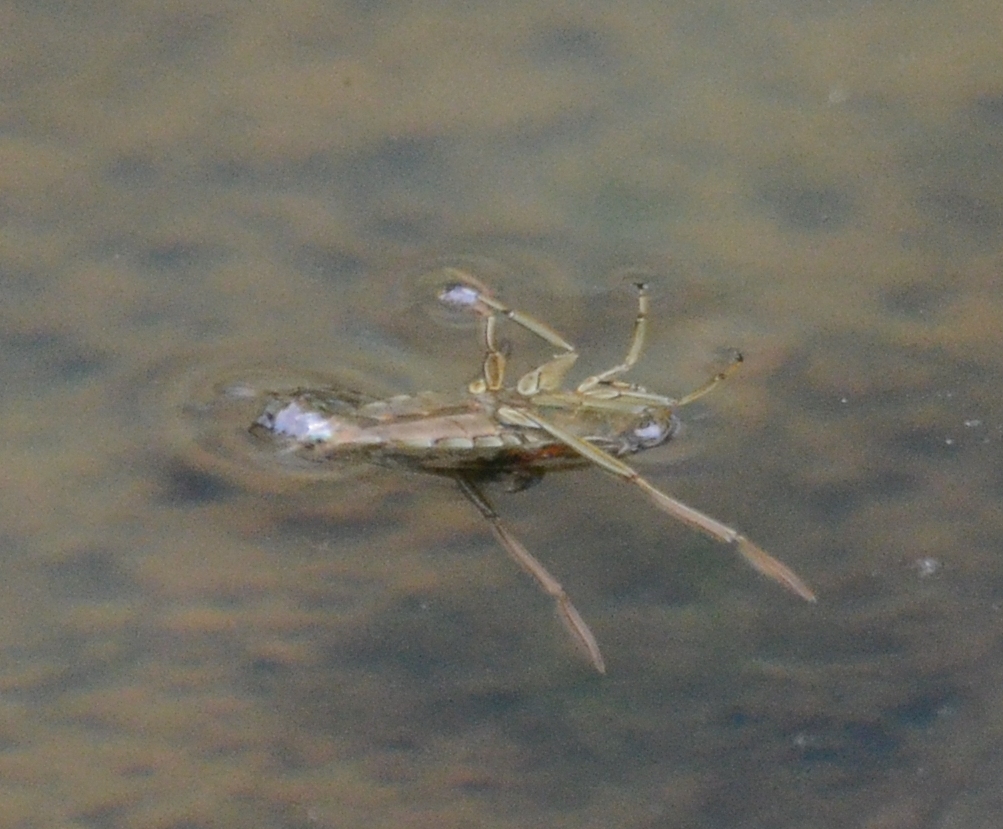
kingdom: Animalia
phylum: Arthropoda
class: Insecta
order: Hemiptera
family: Notonectidae
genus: Notonecta
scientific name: Notonecta
